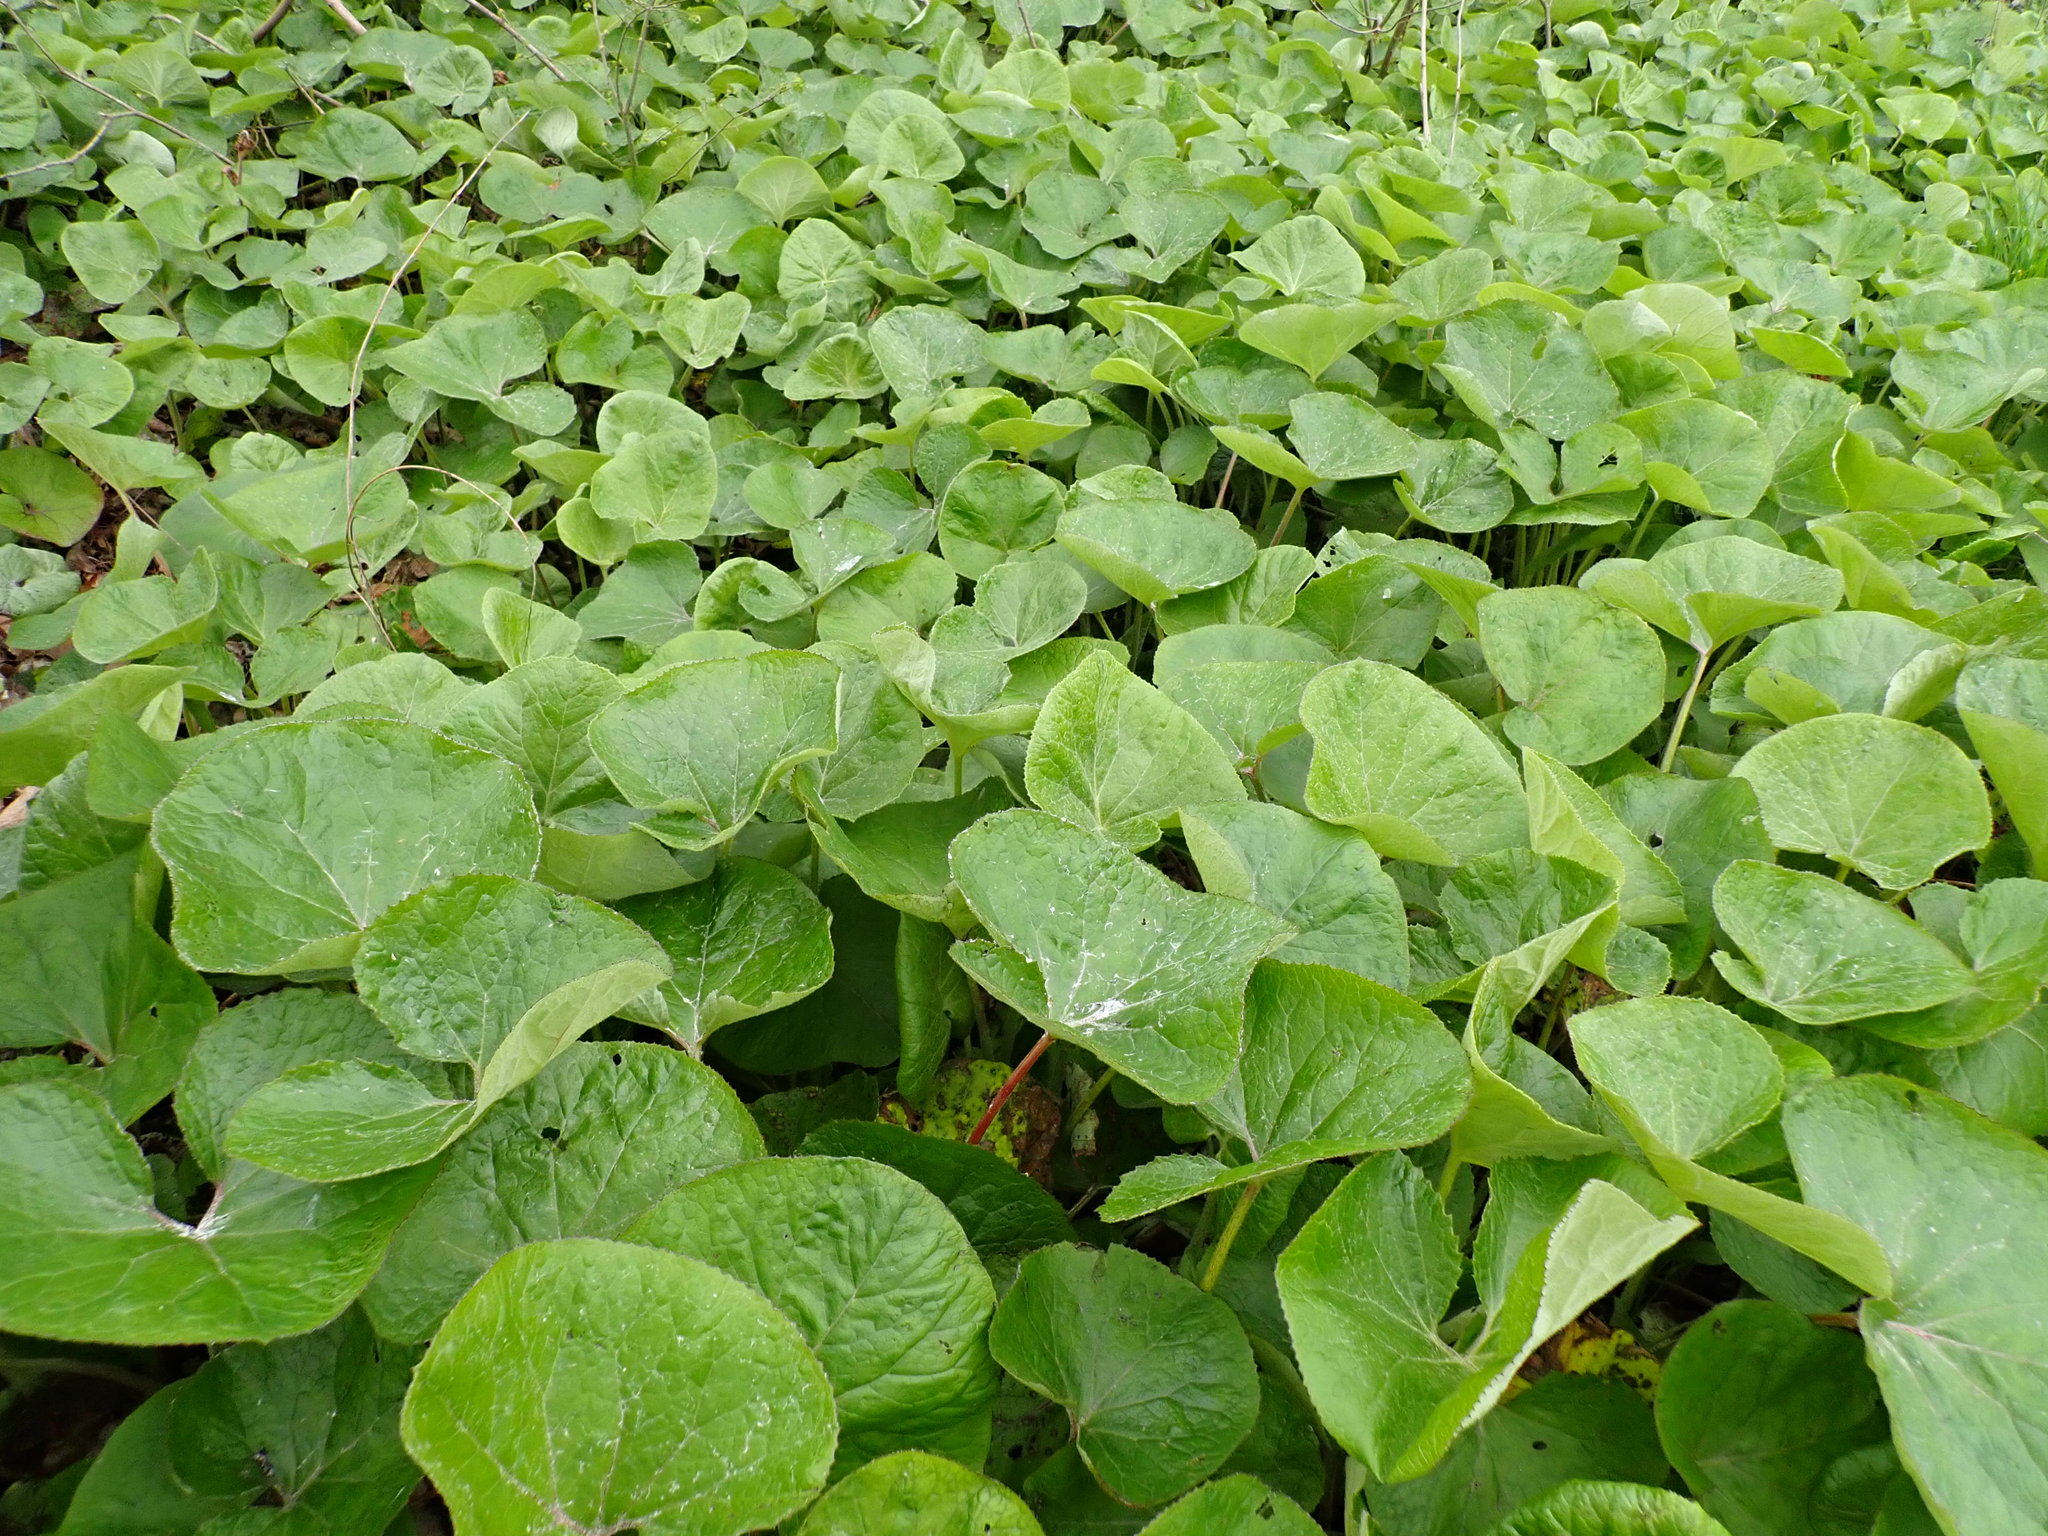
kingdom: Plantae
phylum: Tracheophyta
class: Magnoliopsida
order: Asterales
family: Asteraceae
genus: Petasites
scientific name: Petasites pyrenaicus
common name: Winter heliotrope
